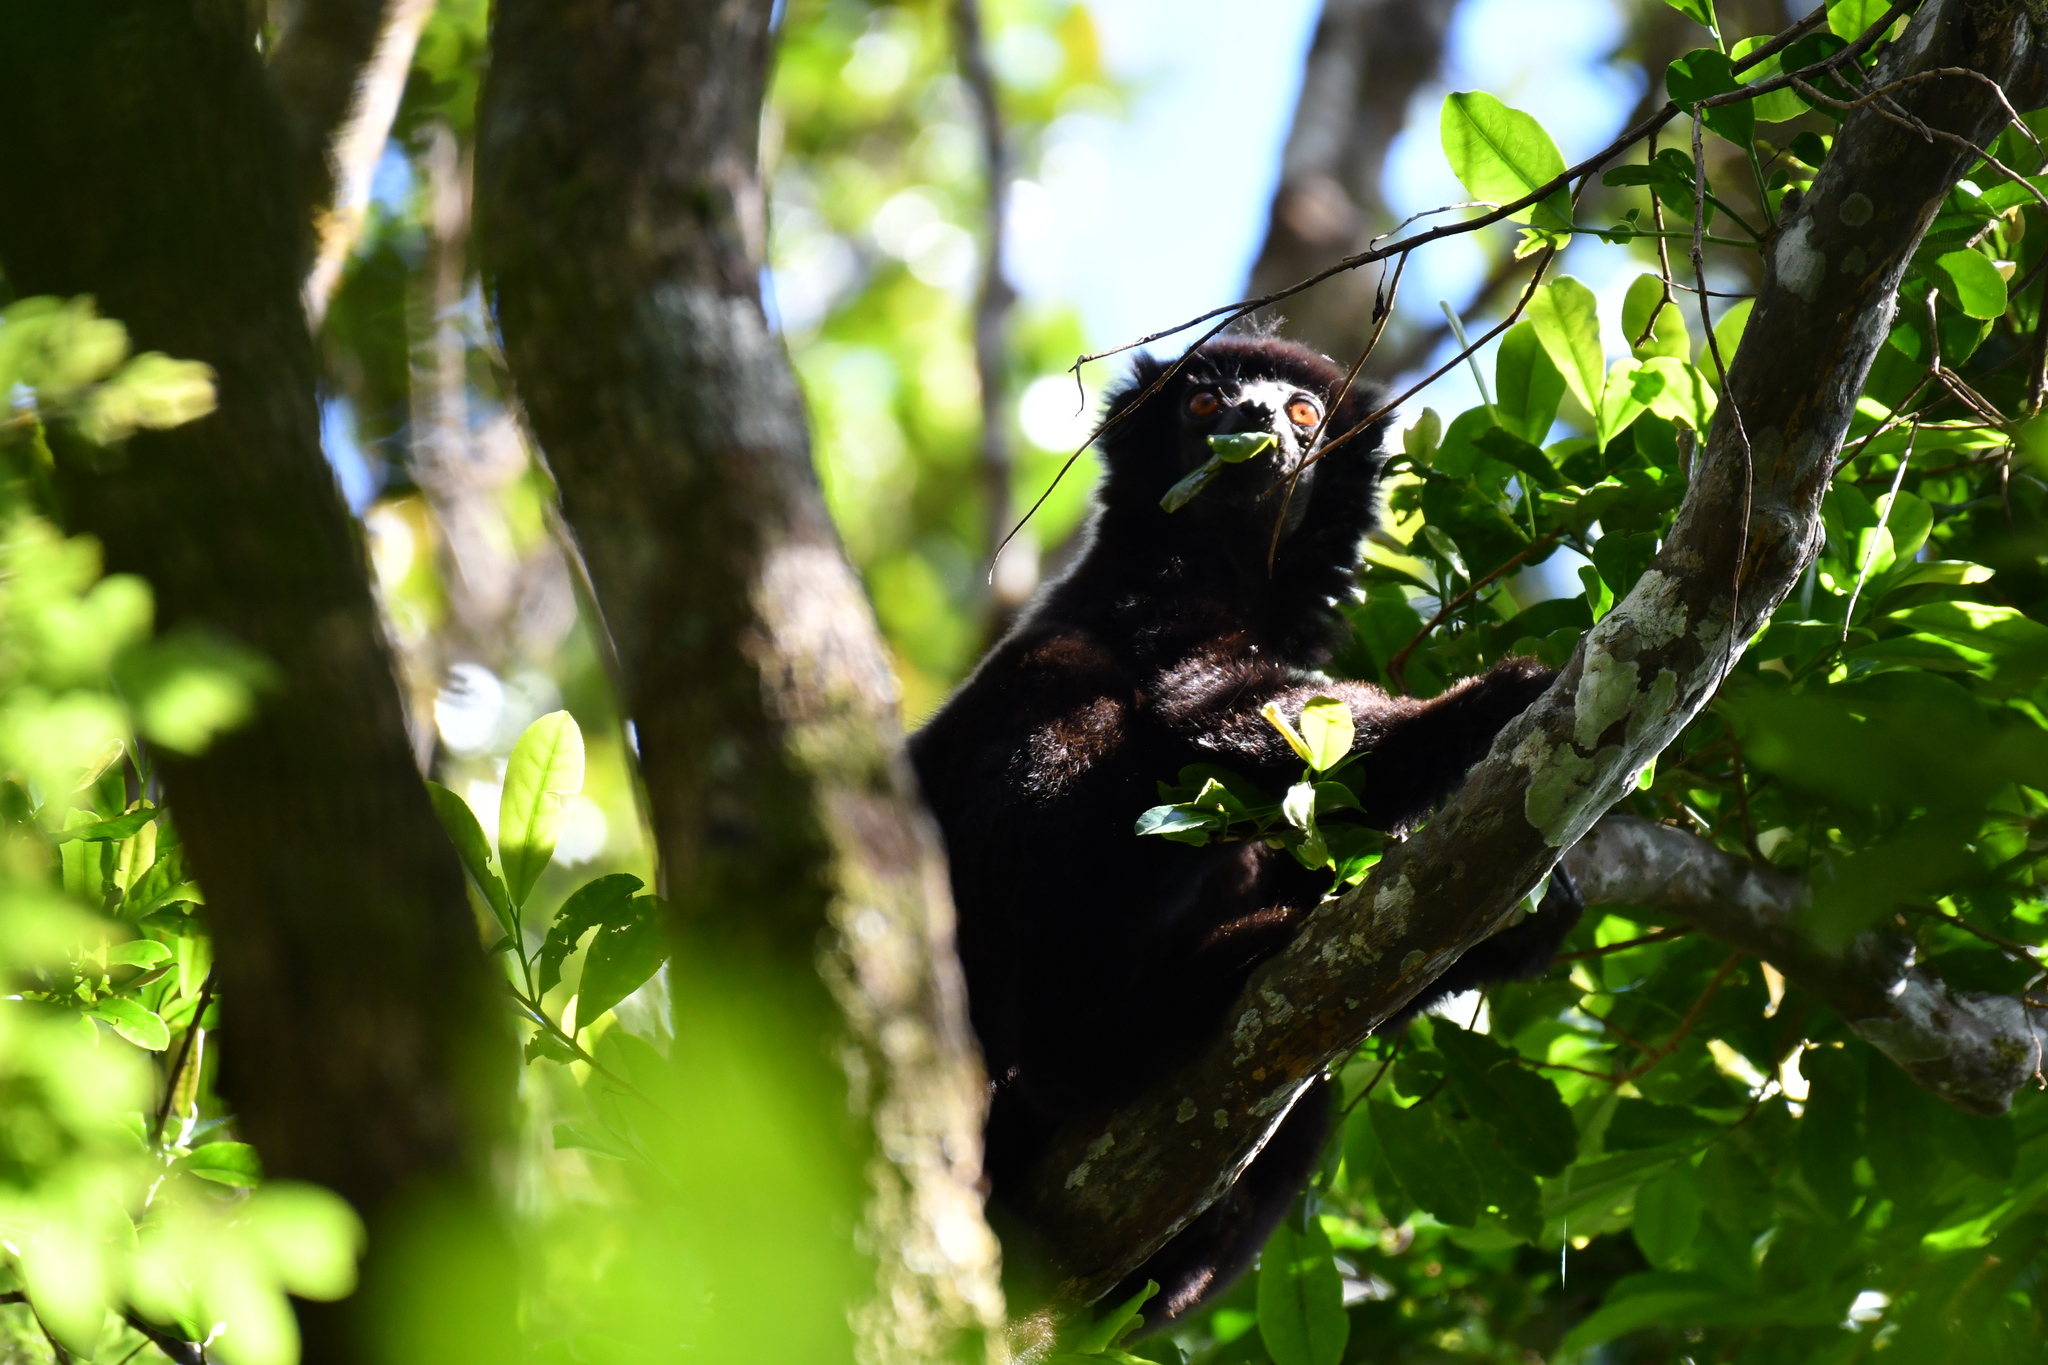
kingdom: Animalia
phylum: Chordata
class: Mammalia
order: Primates
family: Indriidae
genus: Propithecus
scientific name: Propithecus edwardsi
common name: Milne-edwards’s simpona
